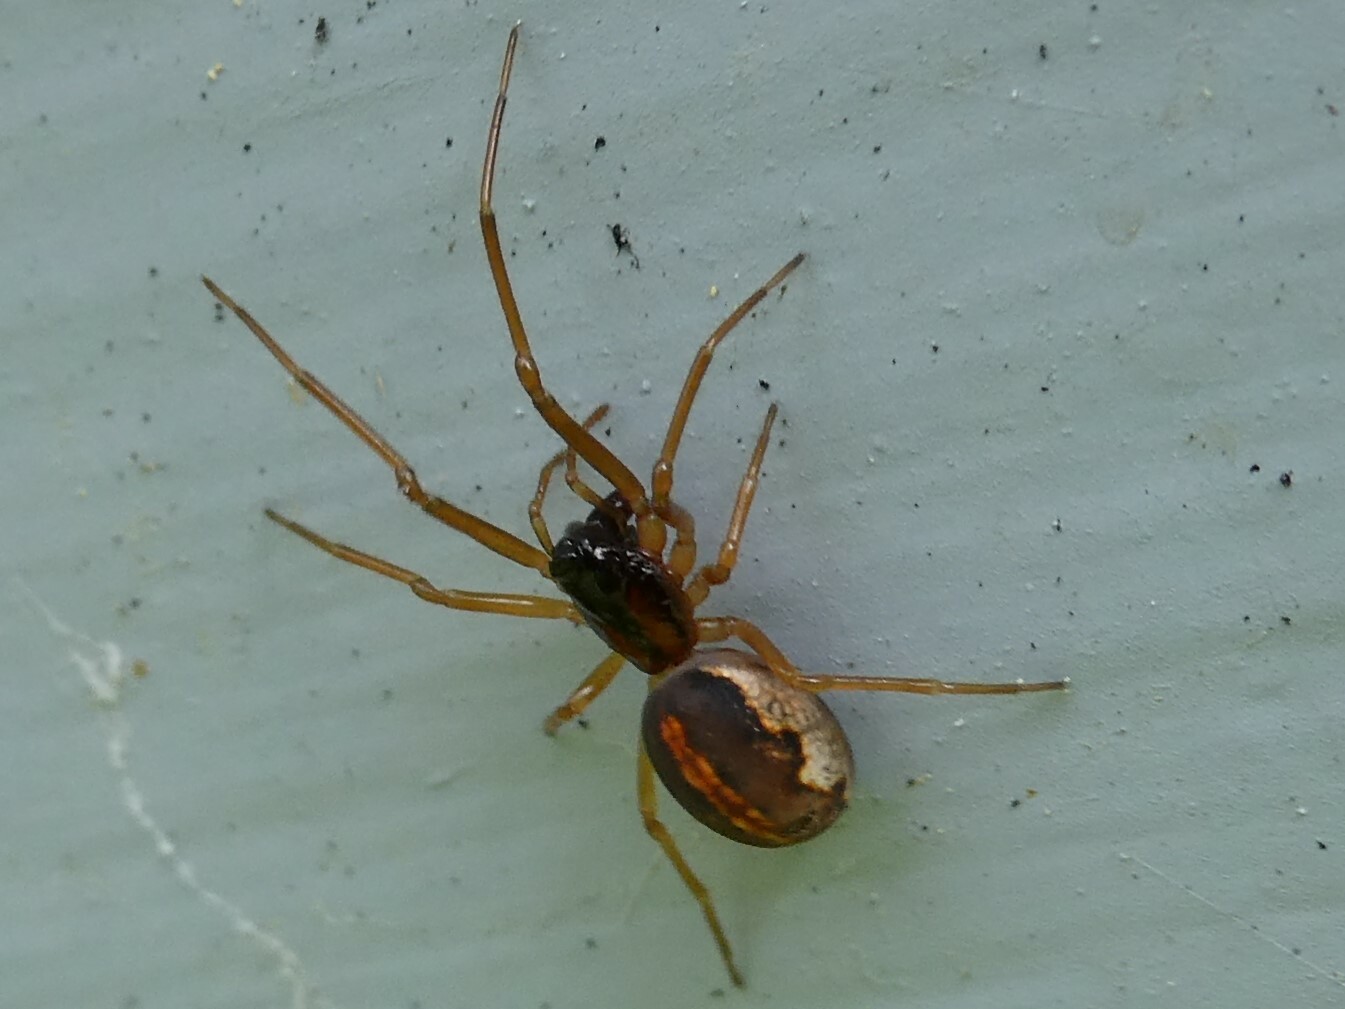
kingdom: Animalia
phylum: Arthropoda
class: Arachnida
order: Araneae
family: Tetragnathidae
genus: Pachygnatha
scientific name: Pachygnatha autumnalis
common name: Big-eyed thick-jawed spider
